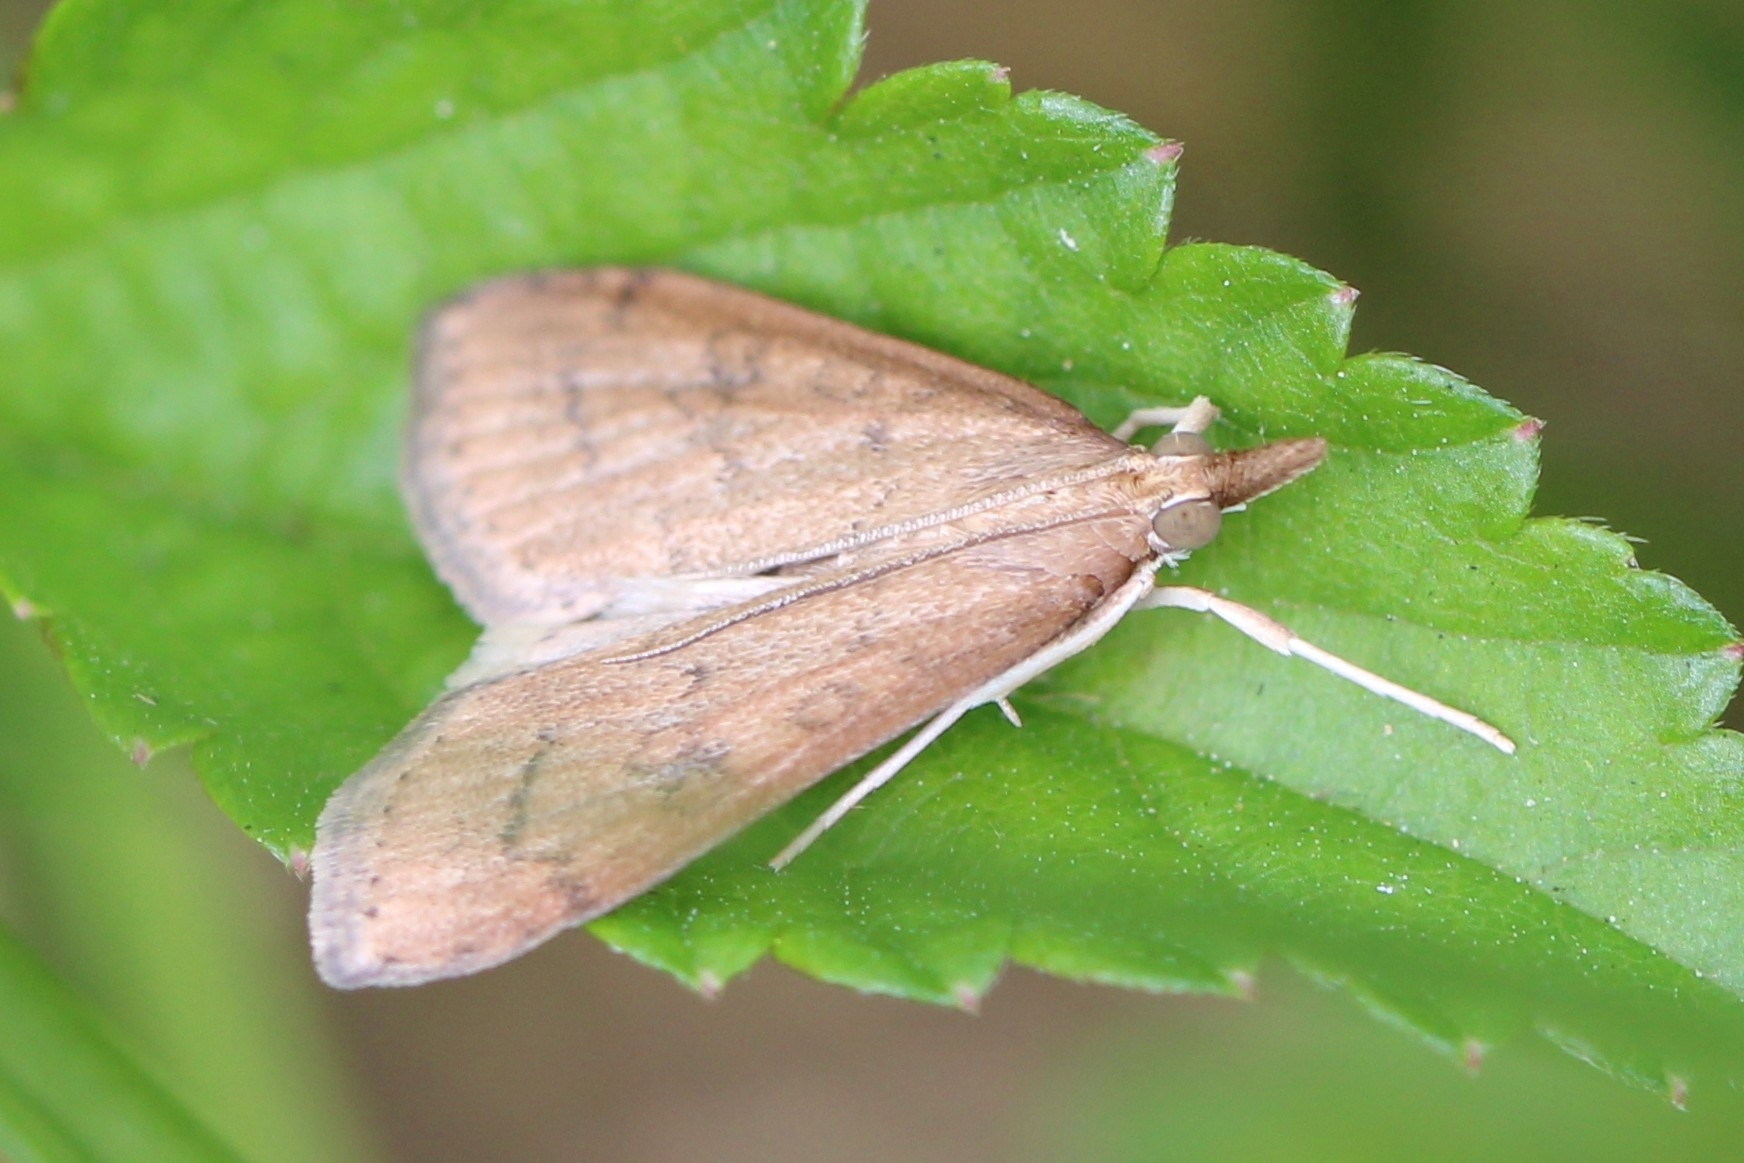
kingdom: Animalia
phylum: Arthropoda
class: Insecta
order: Lepidoptera
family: Crambidae
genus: Udea
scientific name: Udea rubigalis
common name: Celery leaftier moth
